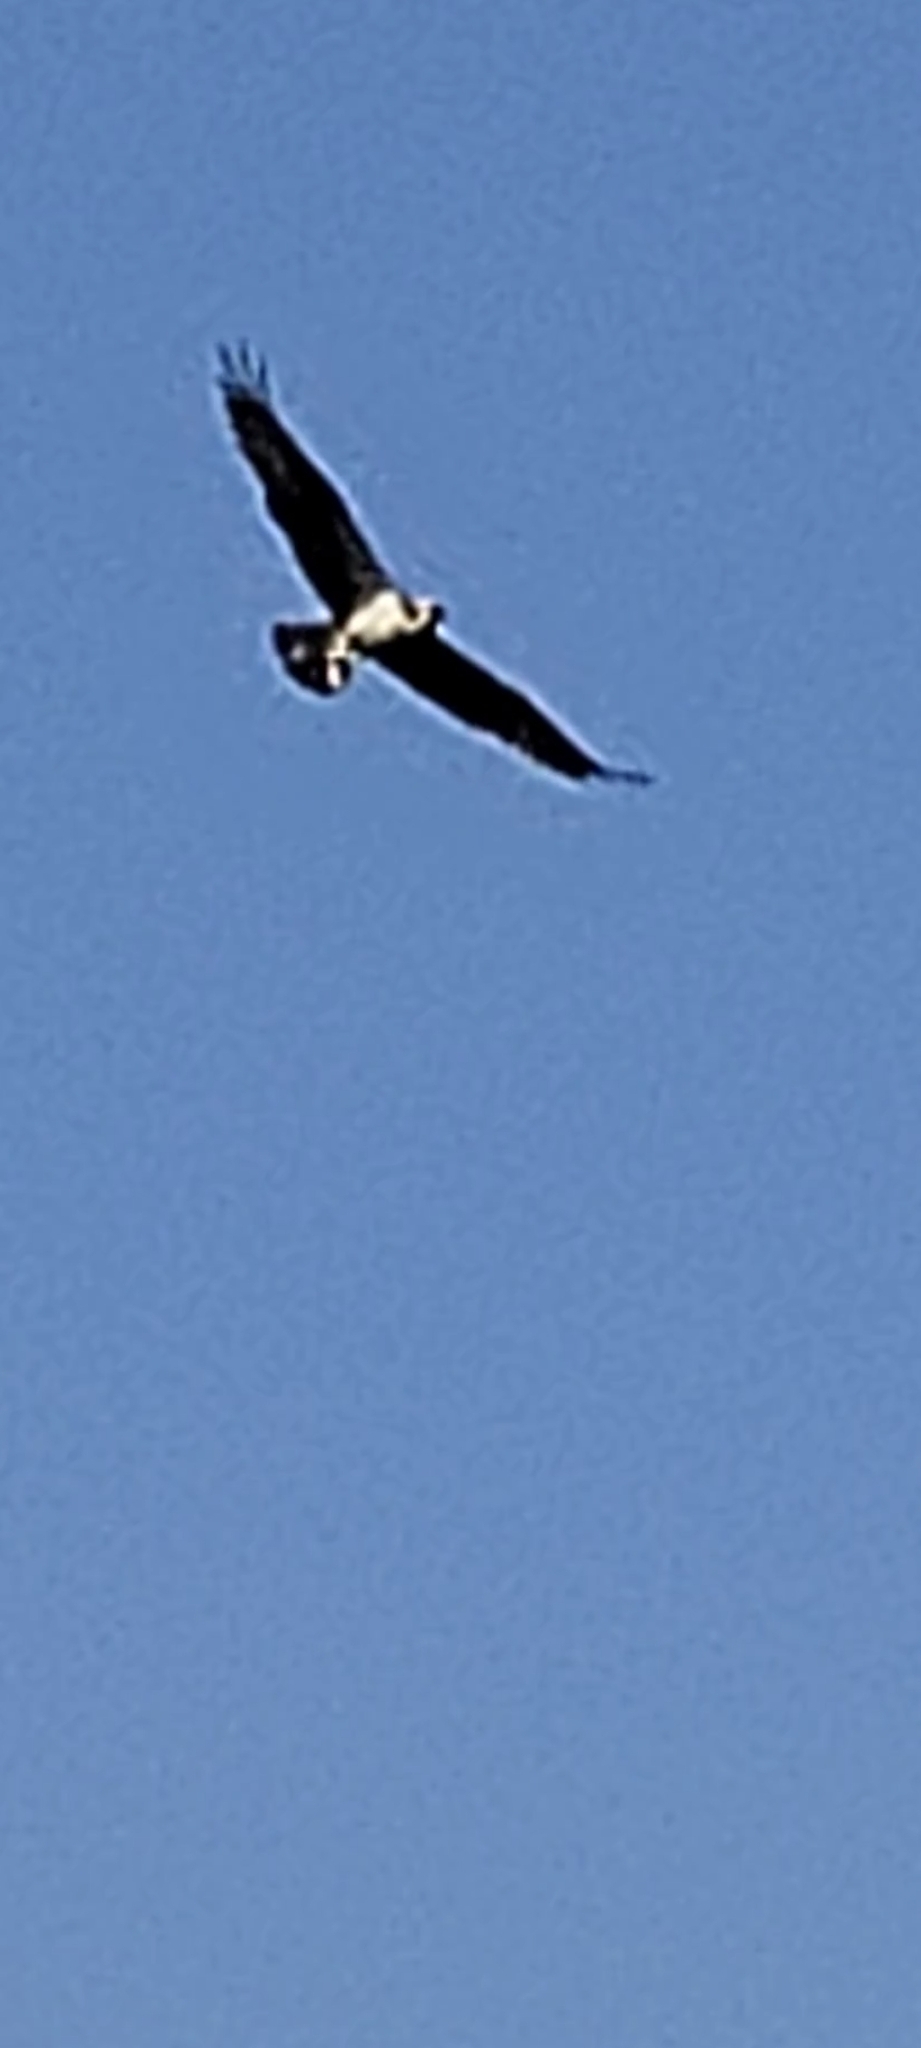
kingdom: Animalia
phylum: Chordata
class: Aves
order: Accipitriformes
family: Pandionidae
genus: Pandion
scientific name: Pandion haliaetus
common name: Osprey
